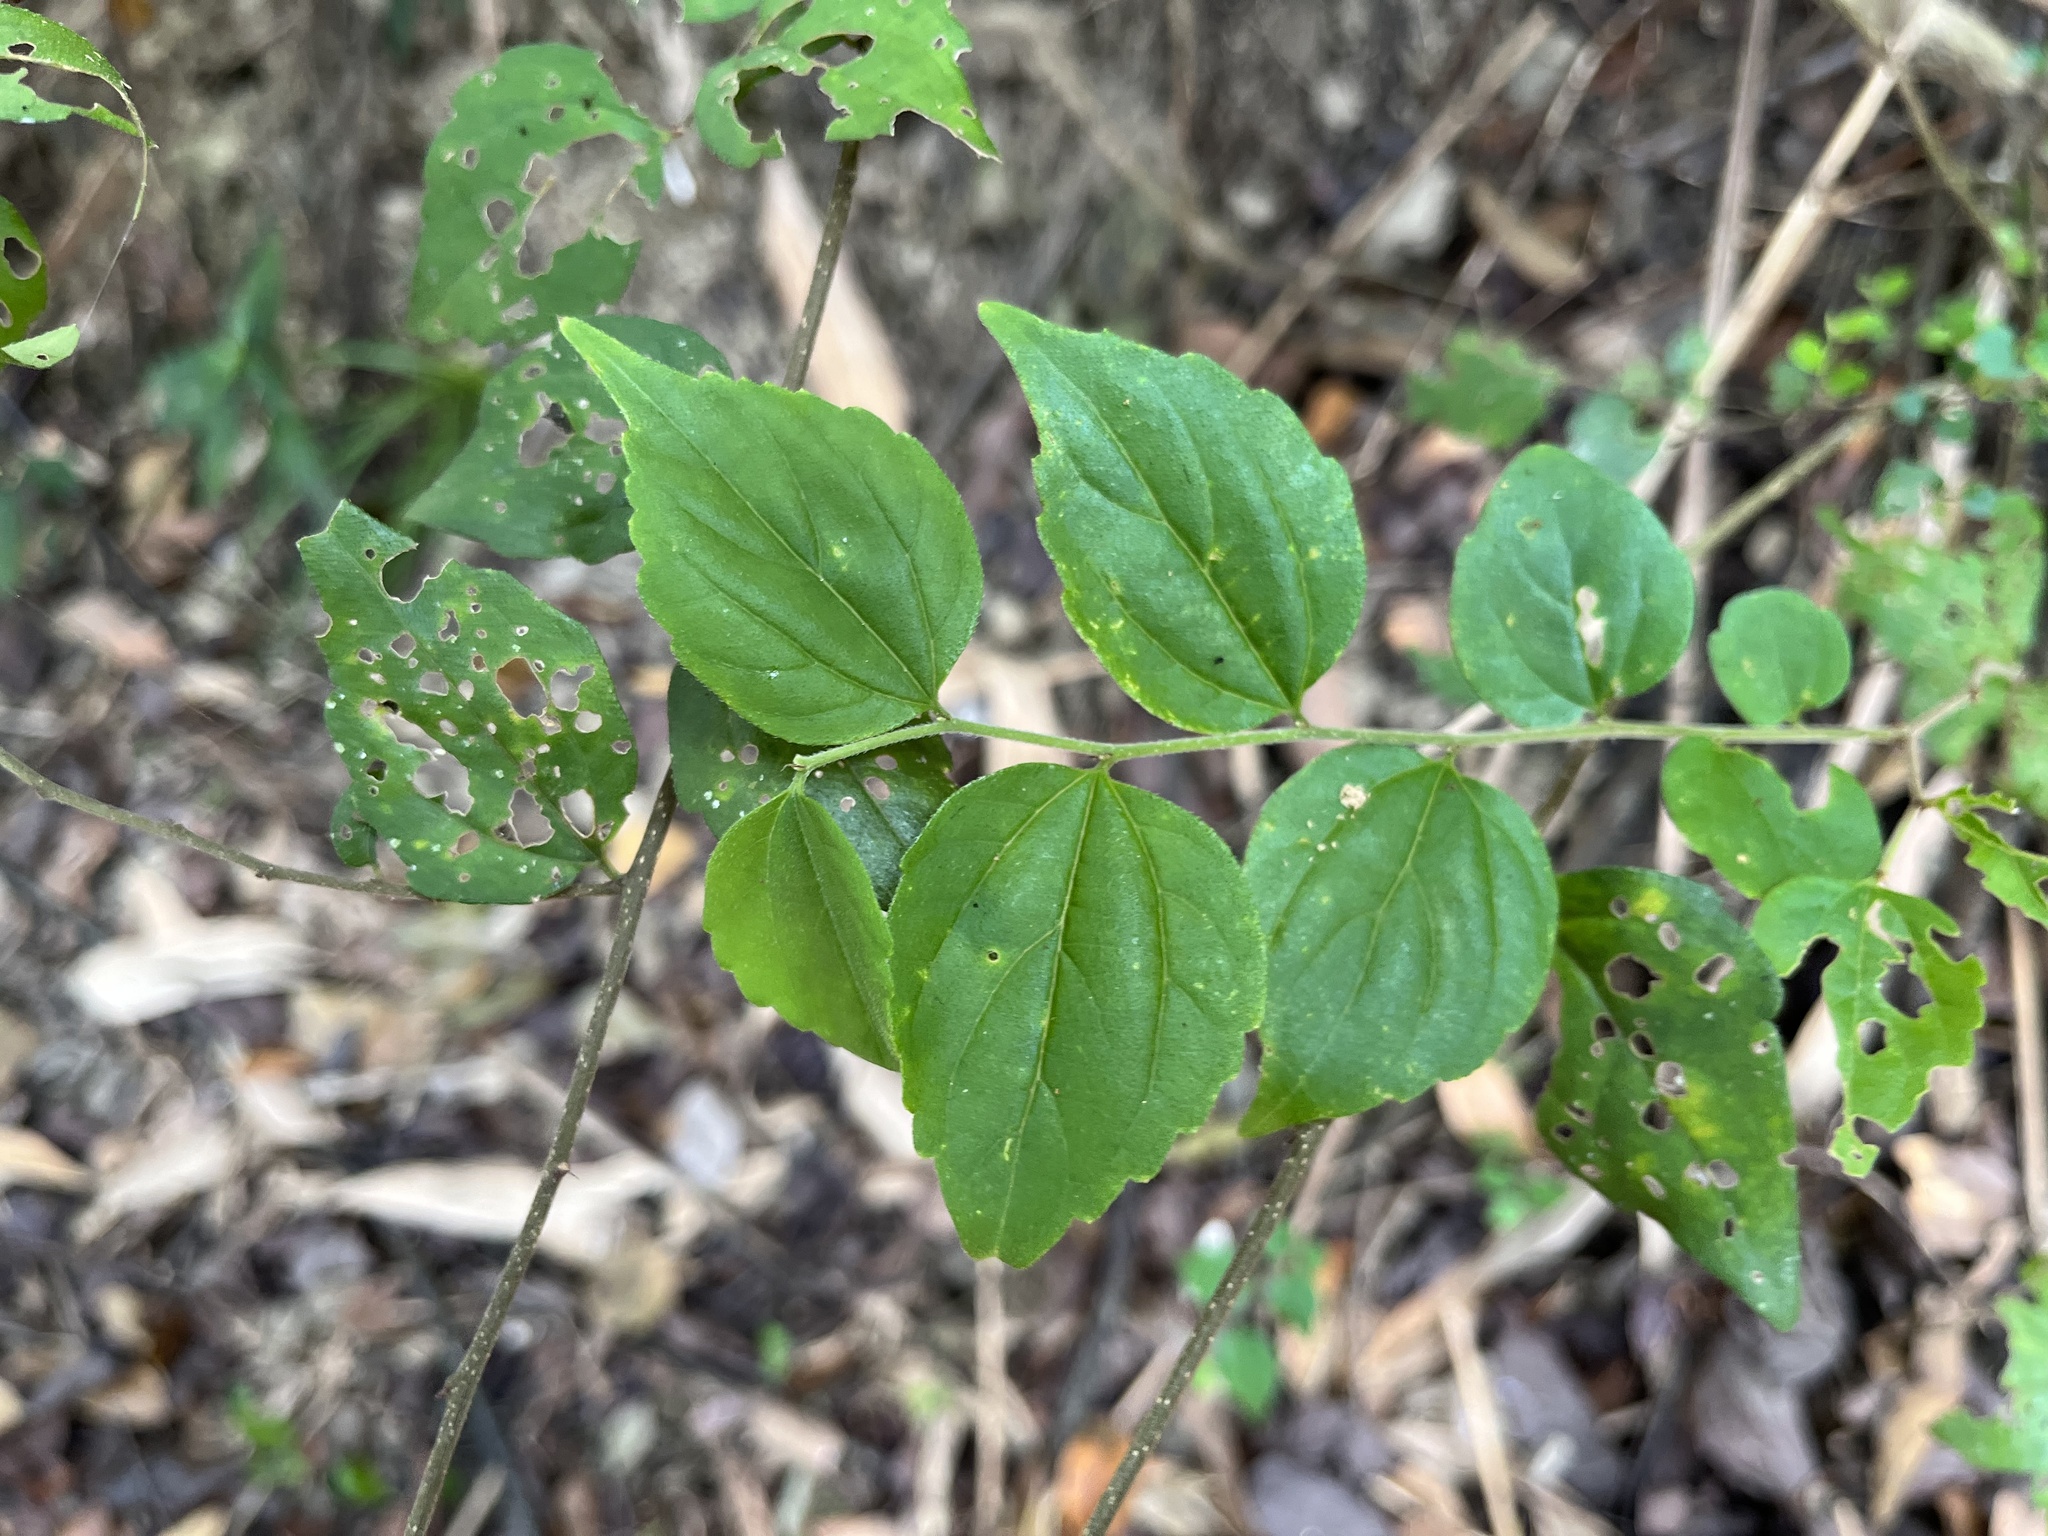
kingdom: Plantae
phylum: Tracheophyta
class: Magnoliopsida
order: Rosales
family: Cannabaceae
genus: Celtis
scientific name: Celtis biondii
